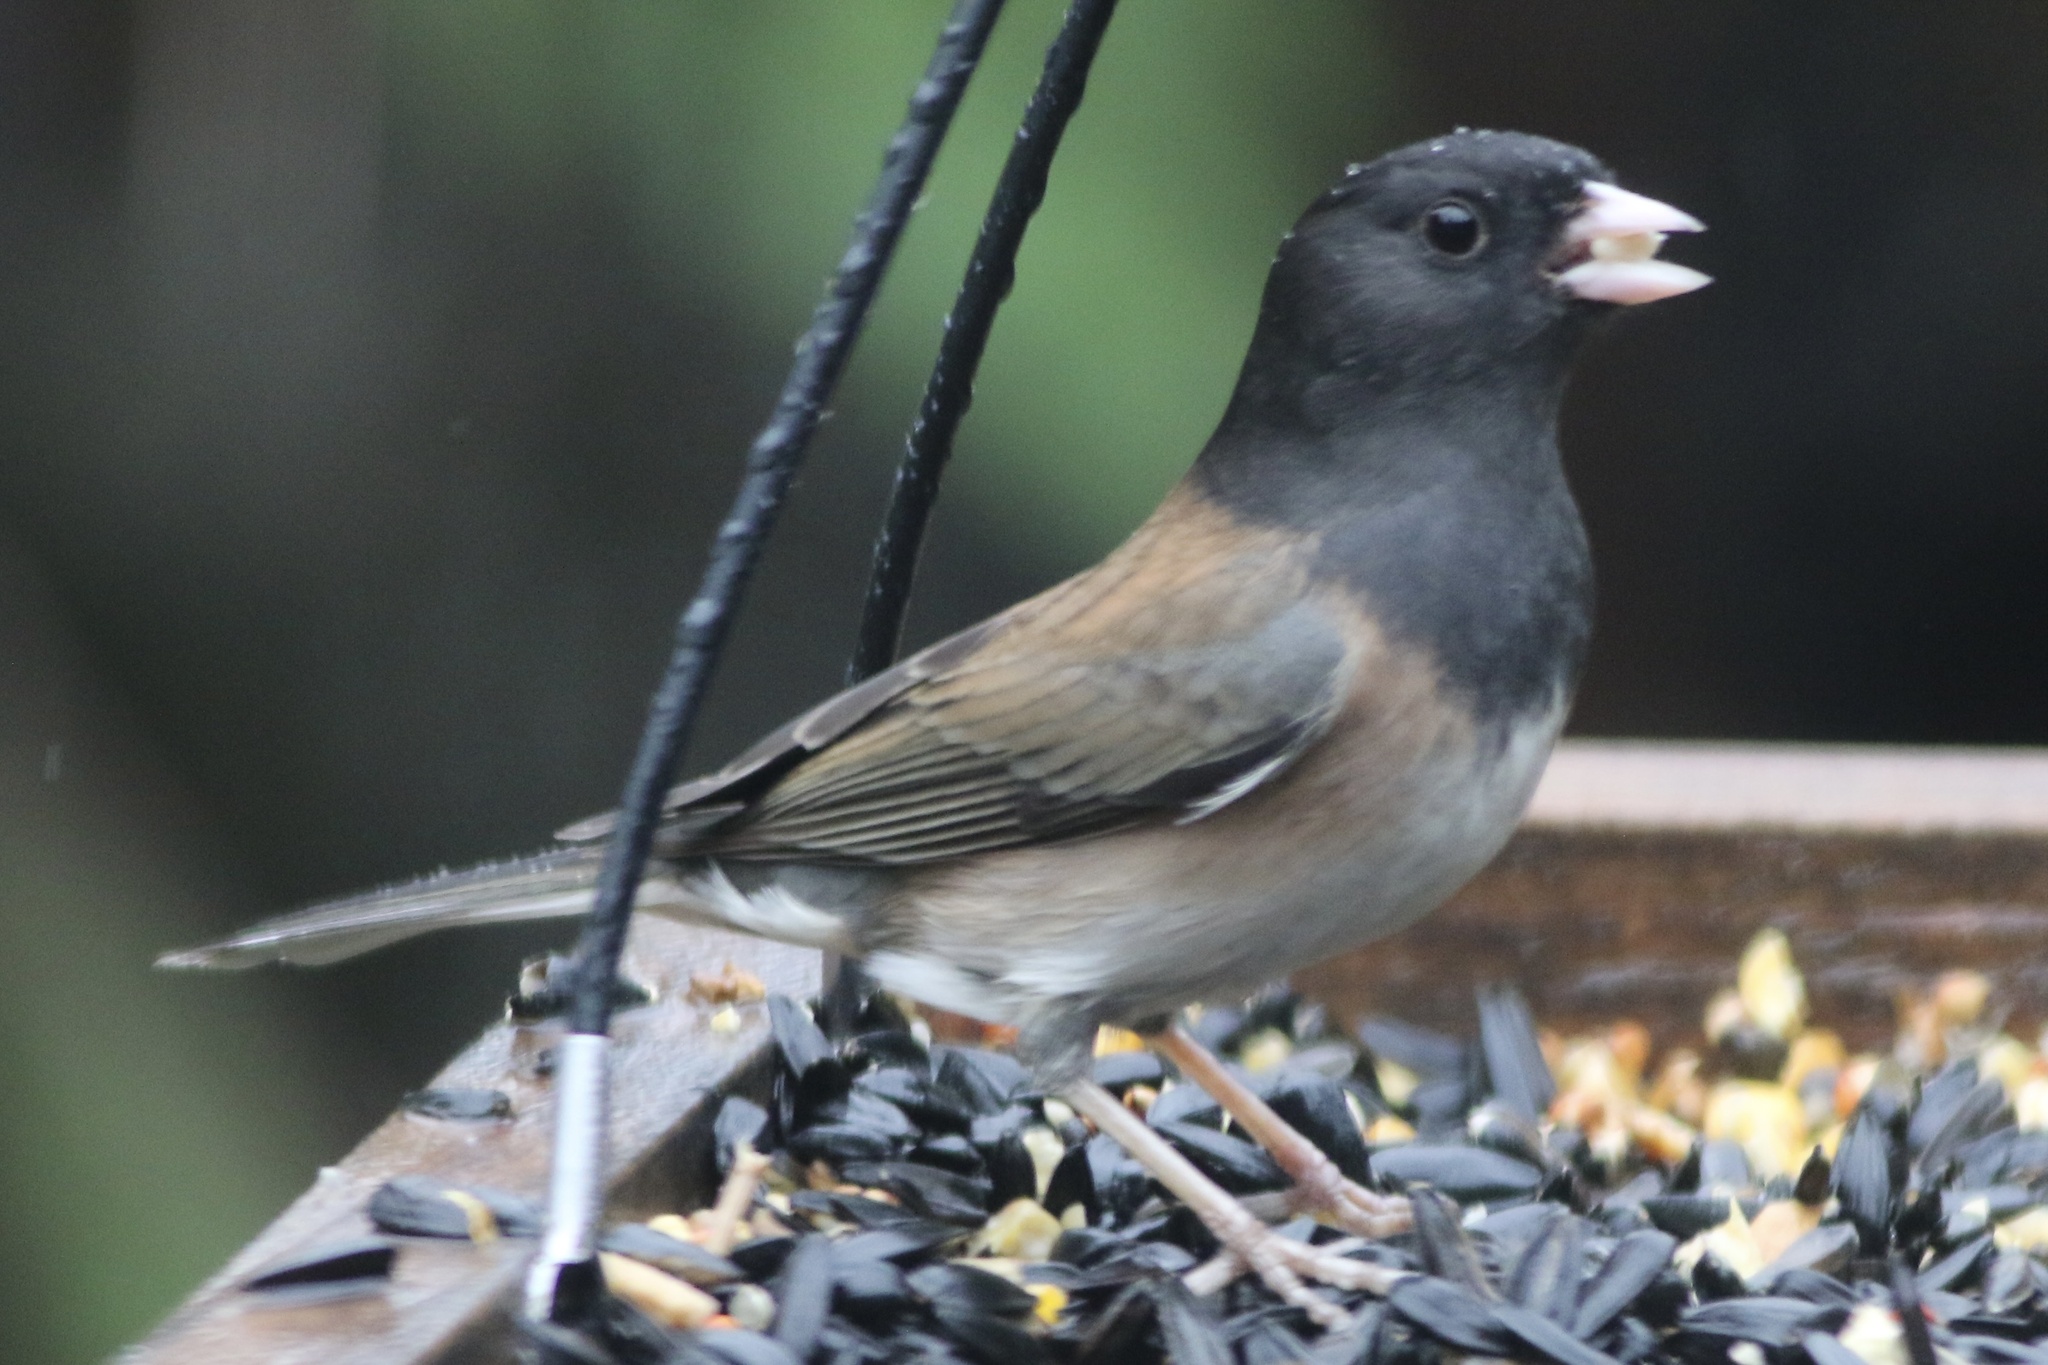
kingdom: Animalia
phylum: Chordata
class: Aves
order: Passeriformes
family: Passerellidae
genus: Junco
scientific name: Junco hyemalis
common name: Dark-eyed junco
